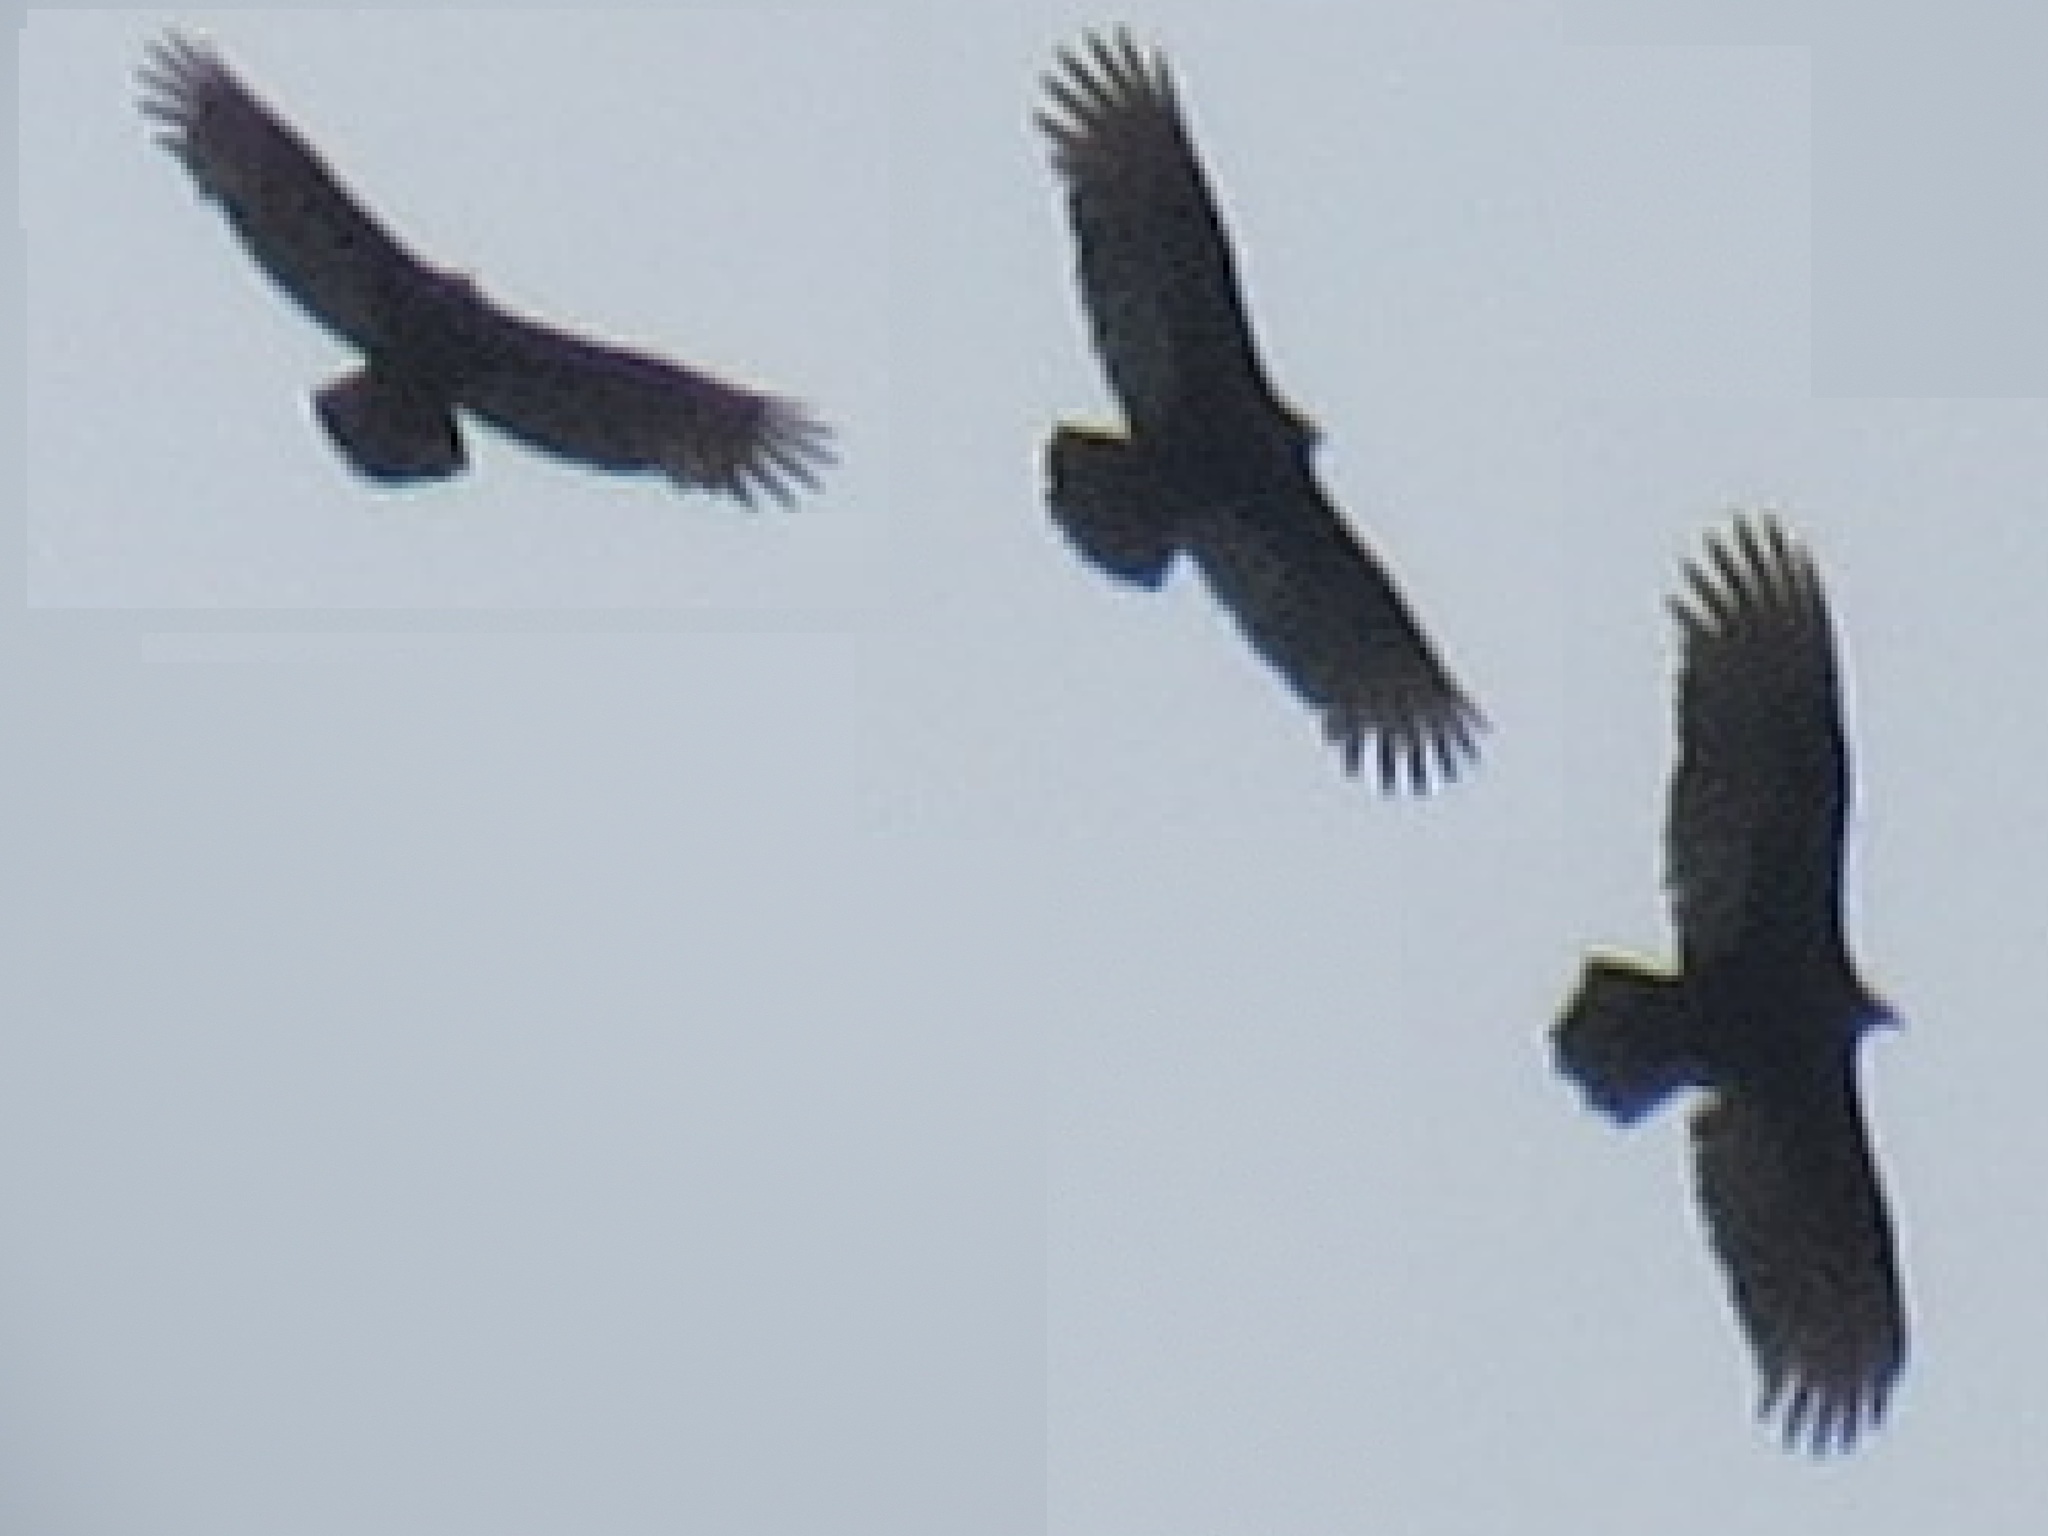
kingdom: Animalia
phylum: Chordata
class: Aves
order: Accipitriformes
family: Cathartidae
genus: Cathartes
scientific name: Cathartes aura
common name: Turkey vulture
